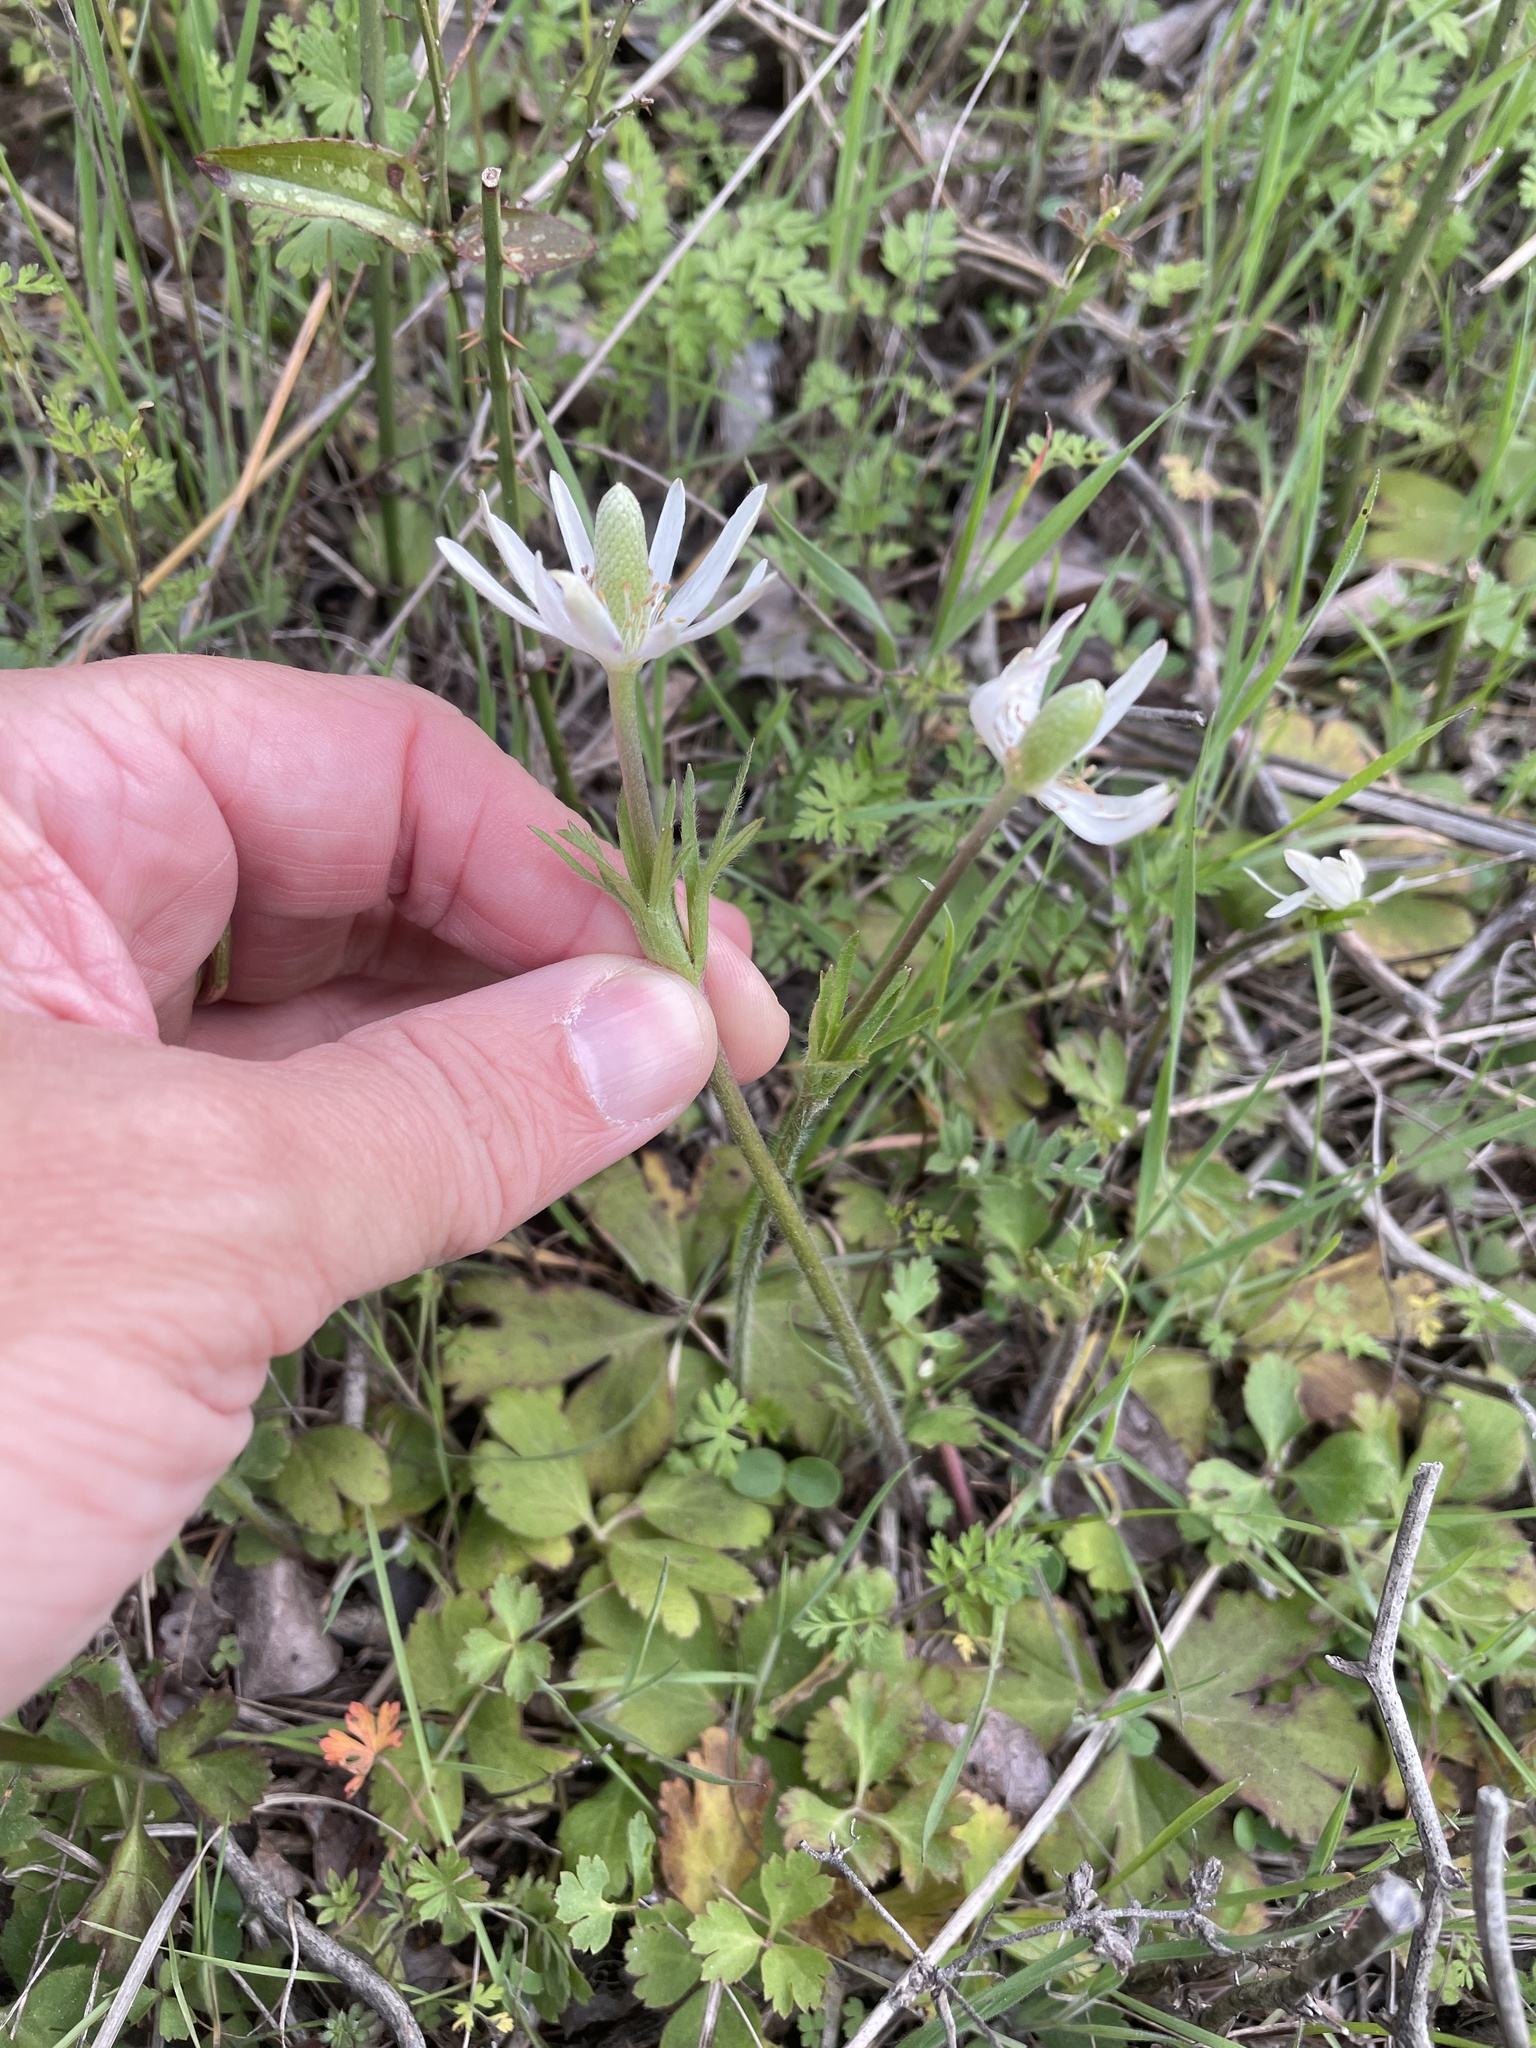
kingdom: Plantae
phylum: Tracheophyta
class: Magnoliopsida
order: Ranunculales
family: Ranunculaceae
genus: Anemone
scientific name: Anemone berlandieri
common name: Ten-petal anemone
